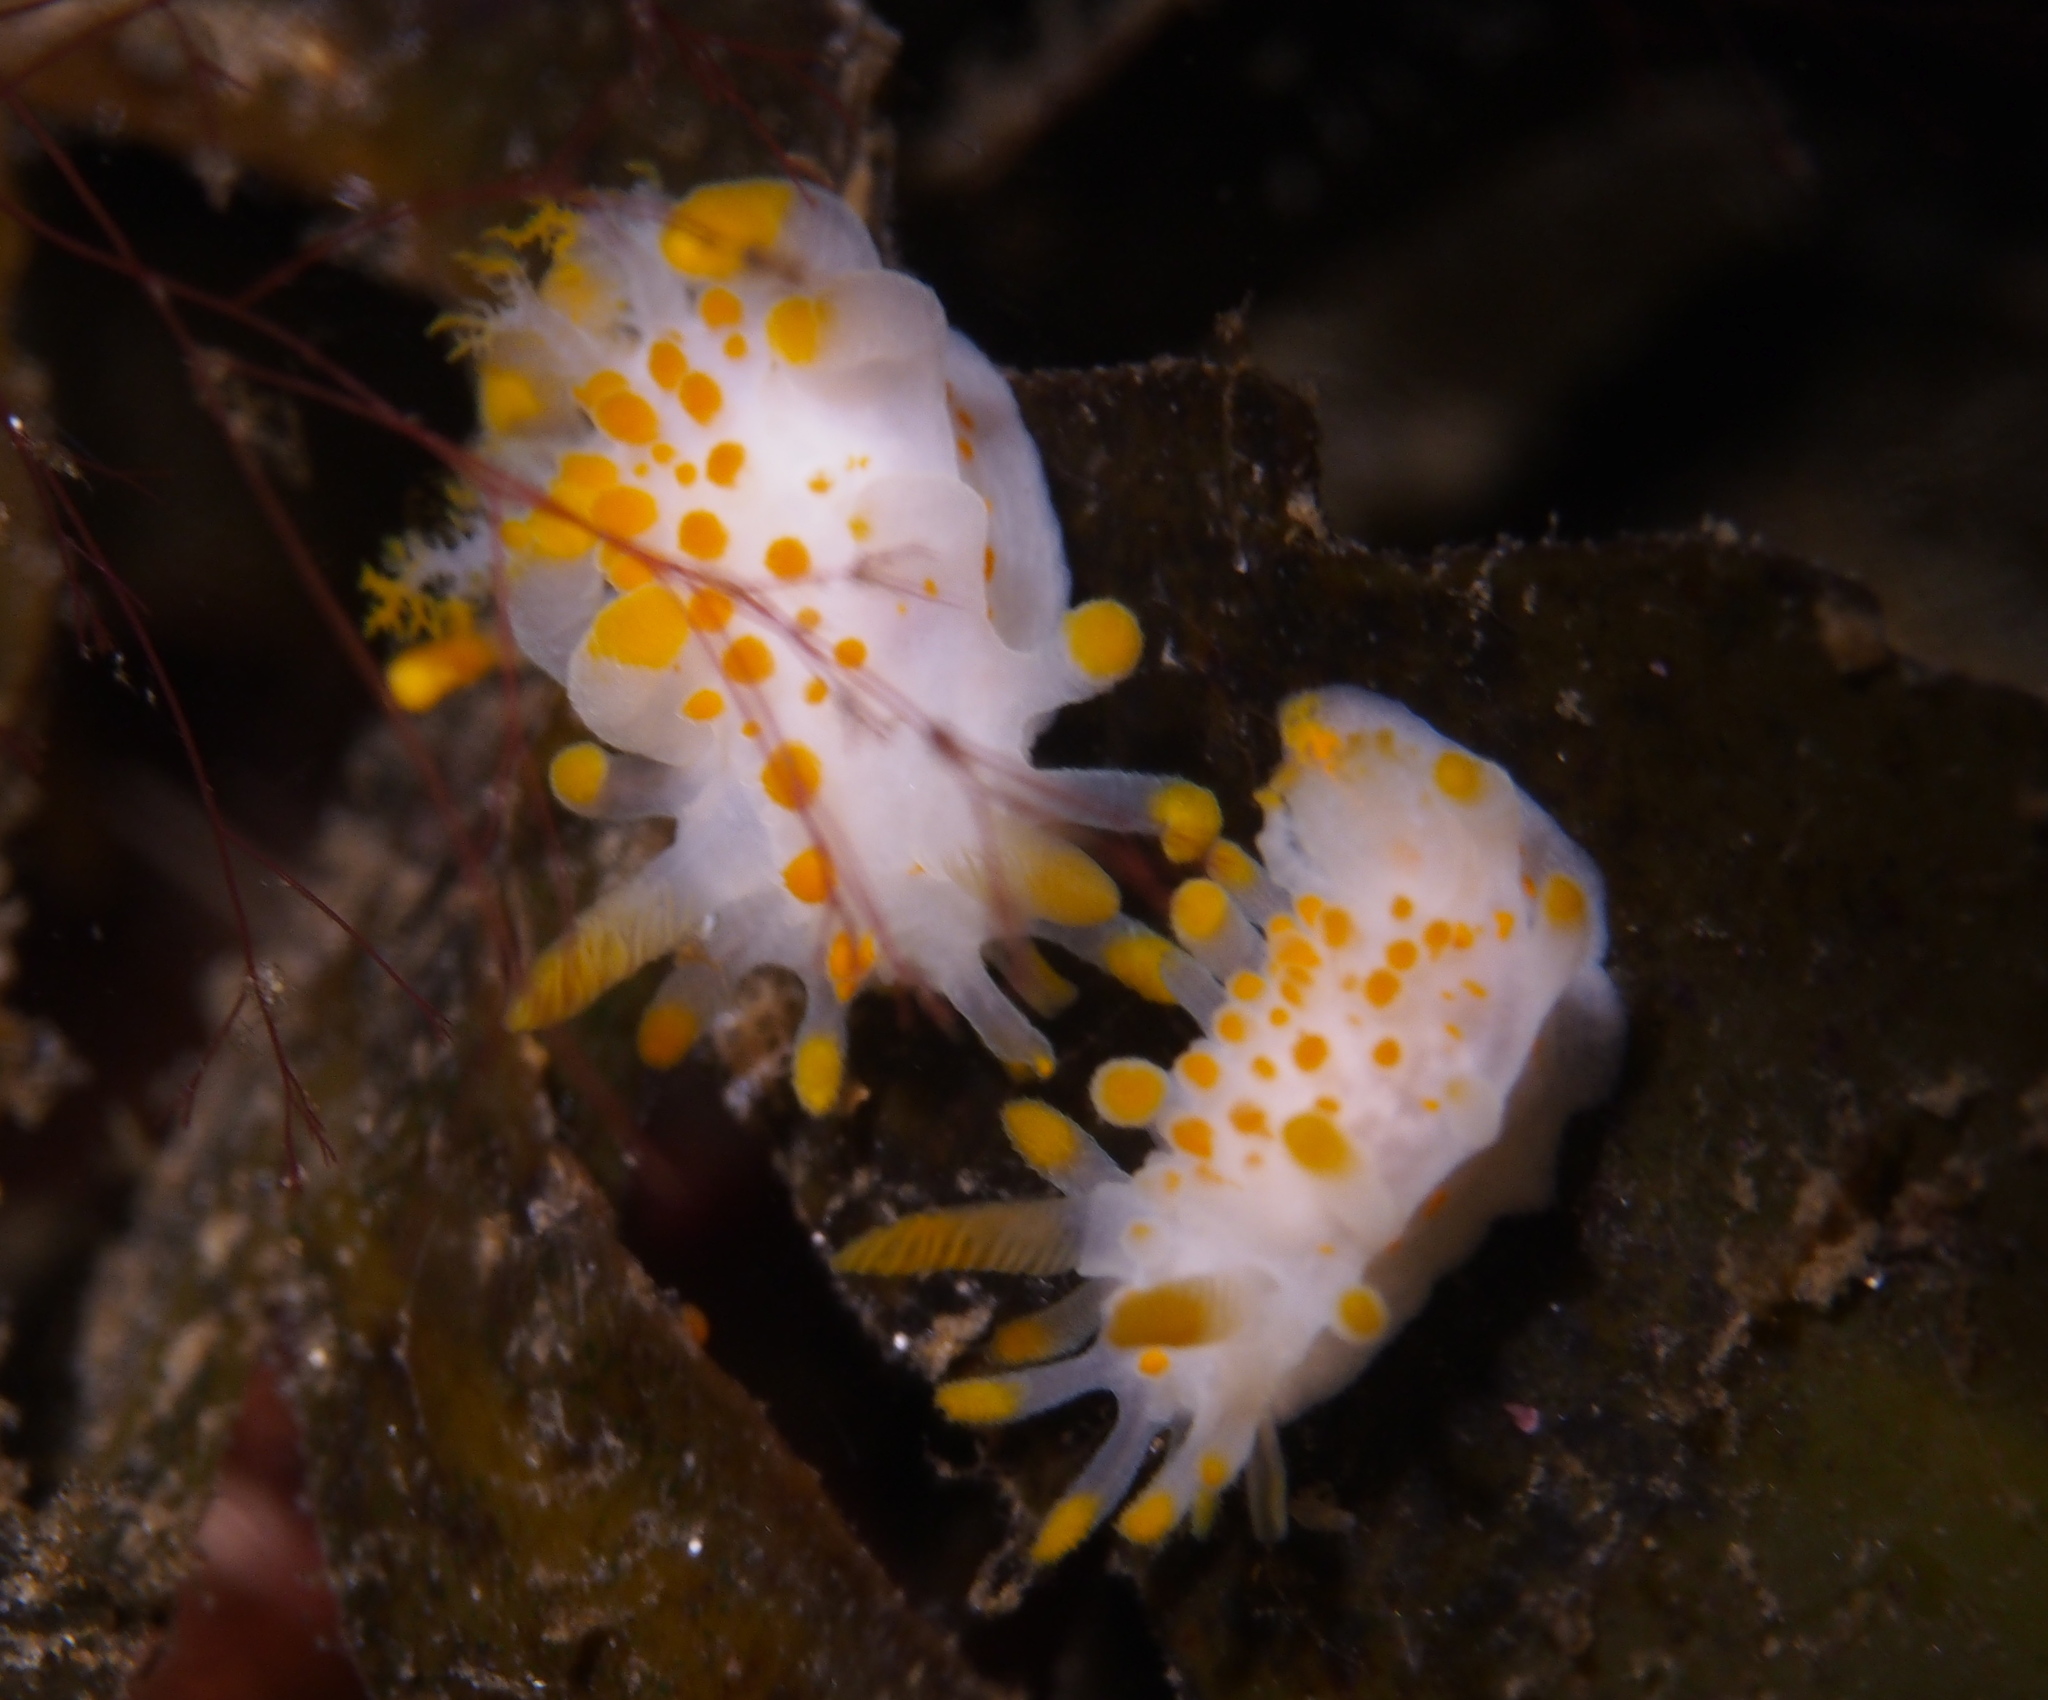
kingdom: Animalia
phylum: Mollusca
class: Gastropoda
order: Nudibranchia
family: Polyceridae
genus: Limacia
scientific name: Limacia clavigera
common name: Orange-clubbed sea slug
